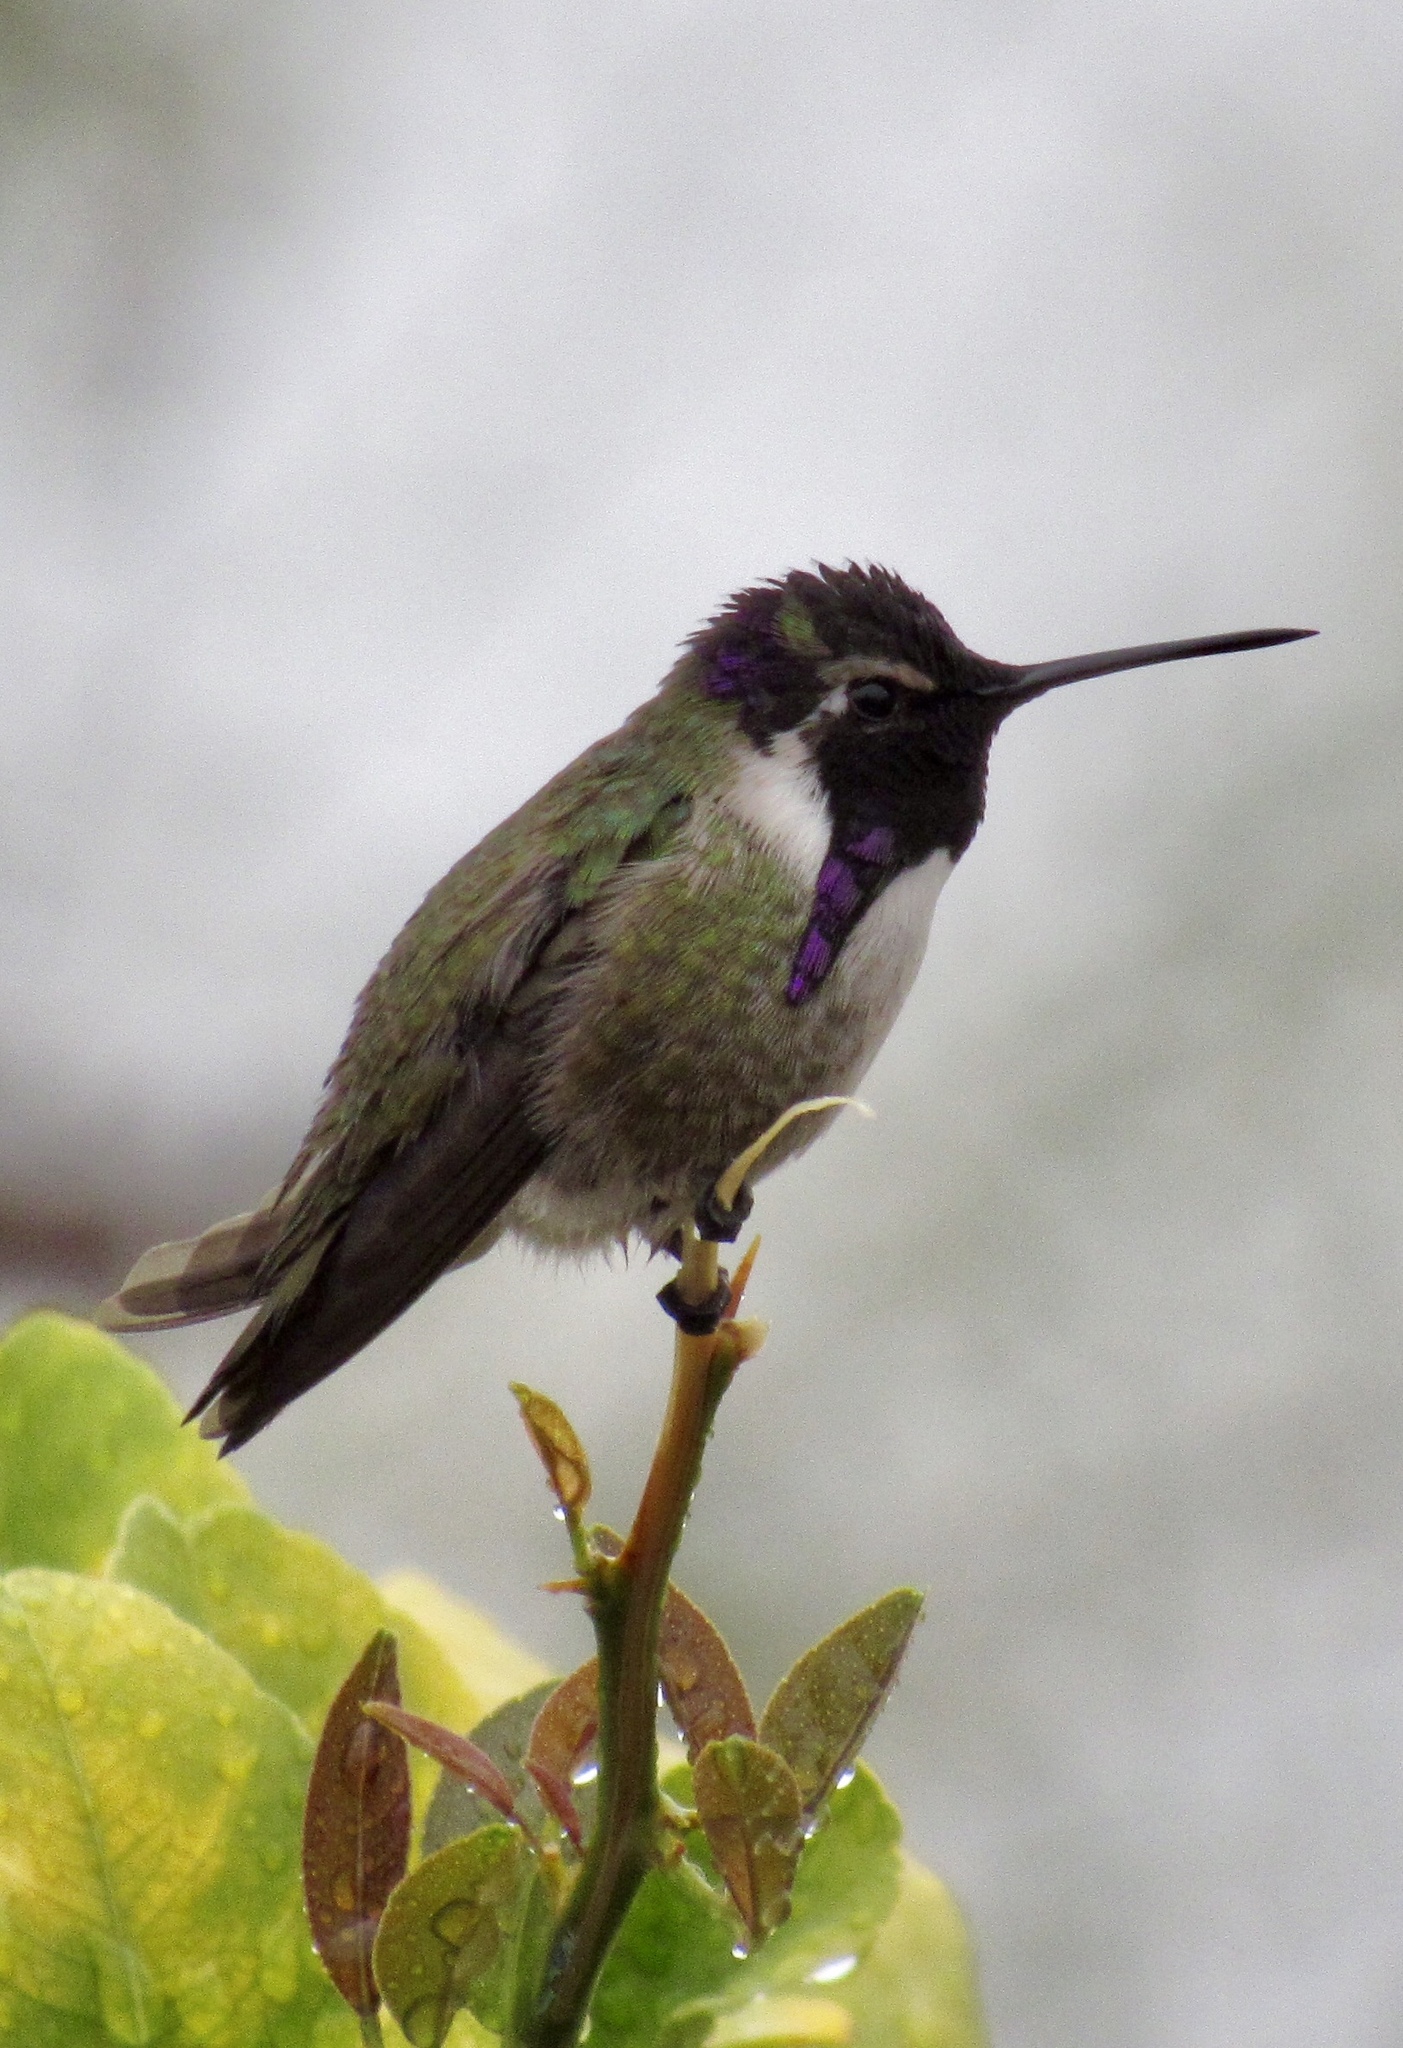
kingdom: Animalia
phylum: Chordata
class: Aves
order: Apodiformes
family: Trochilidae
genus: Calypte
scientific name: Calypte costae
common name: Costa's hummingbird
